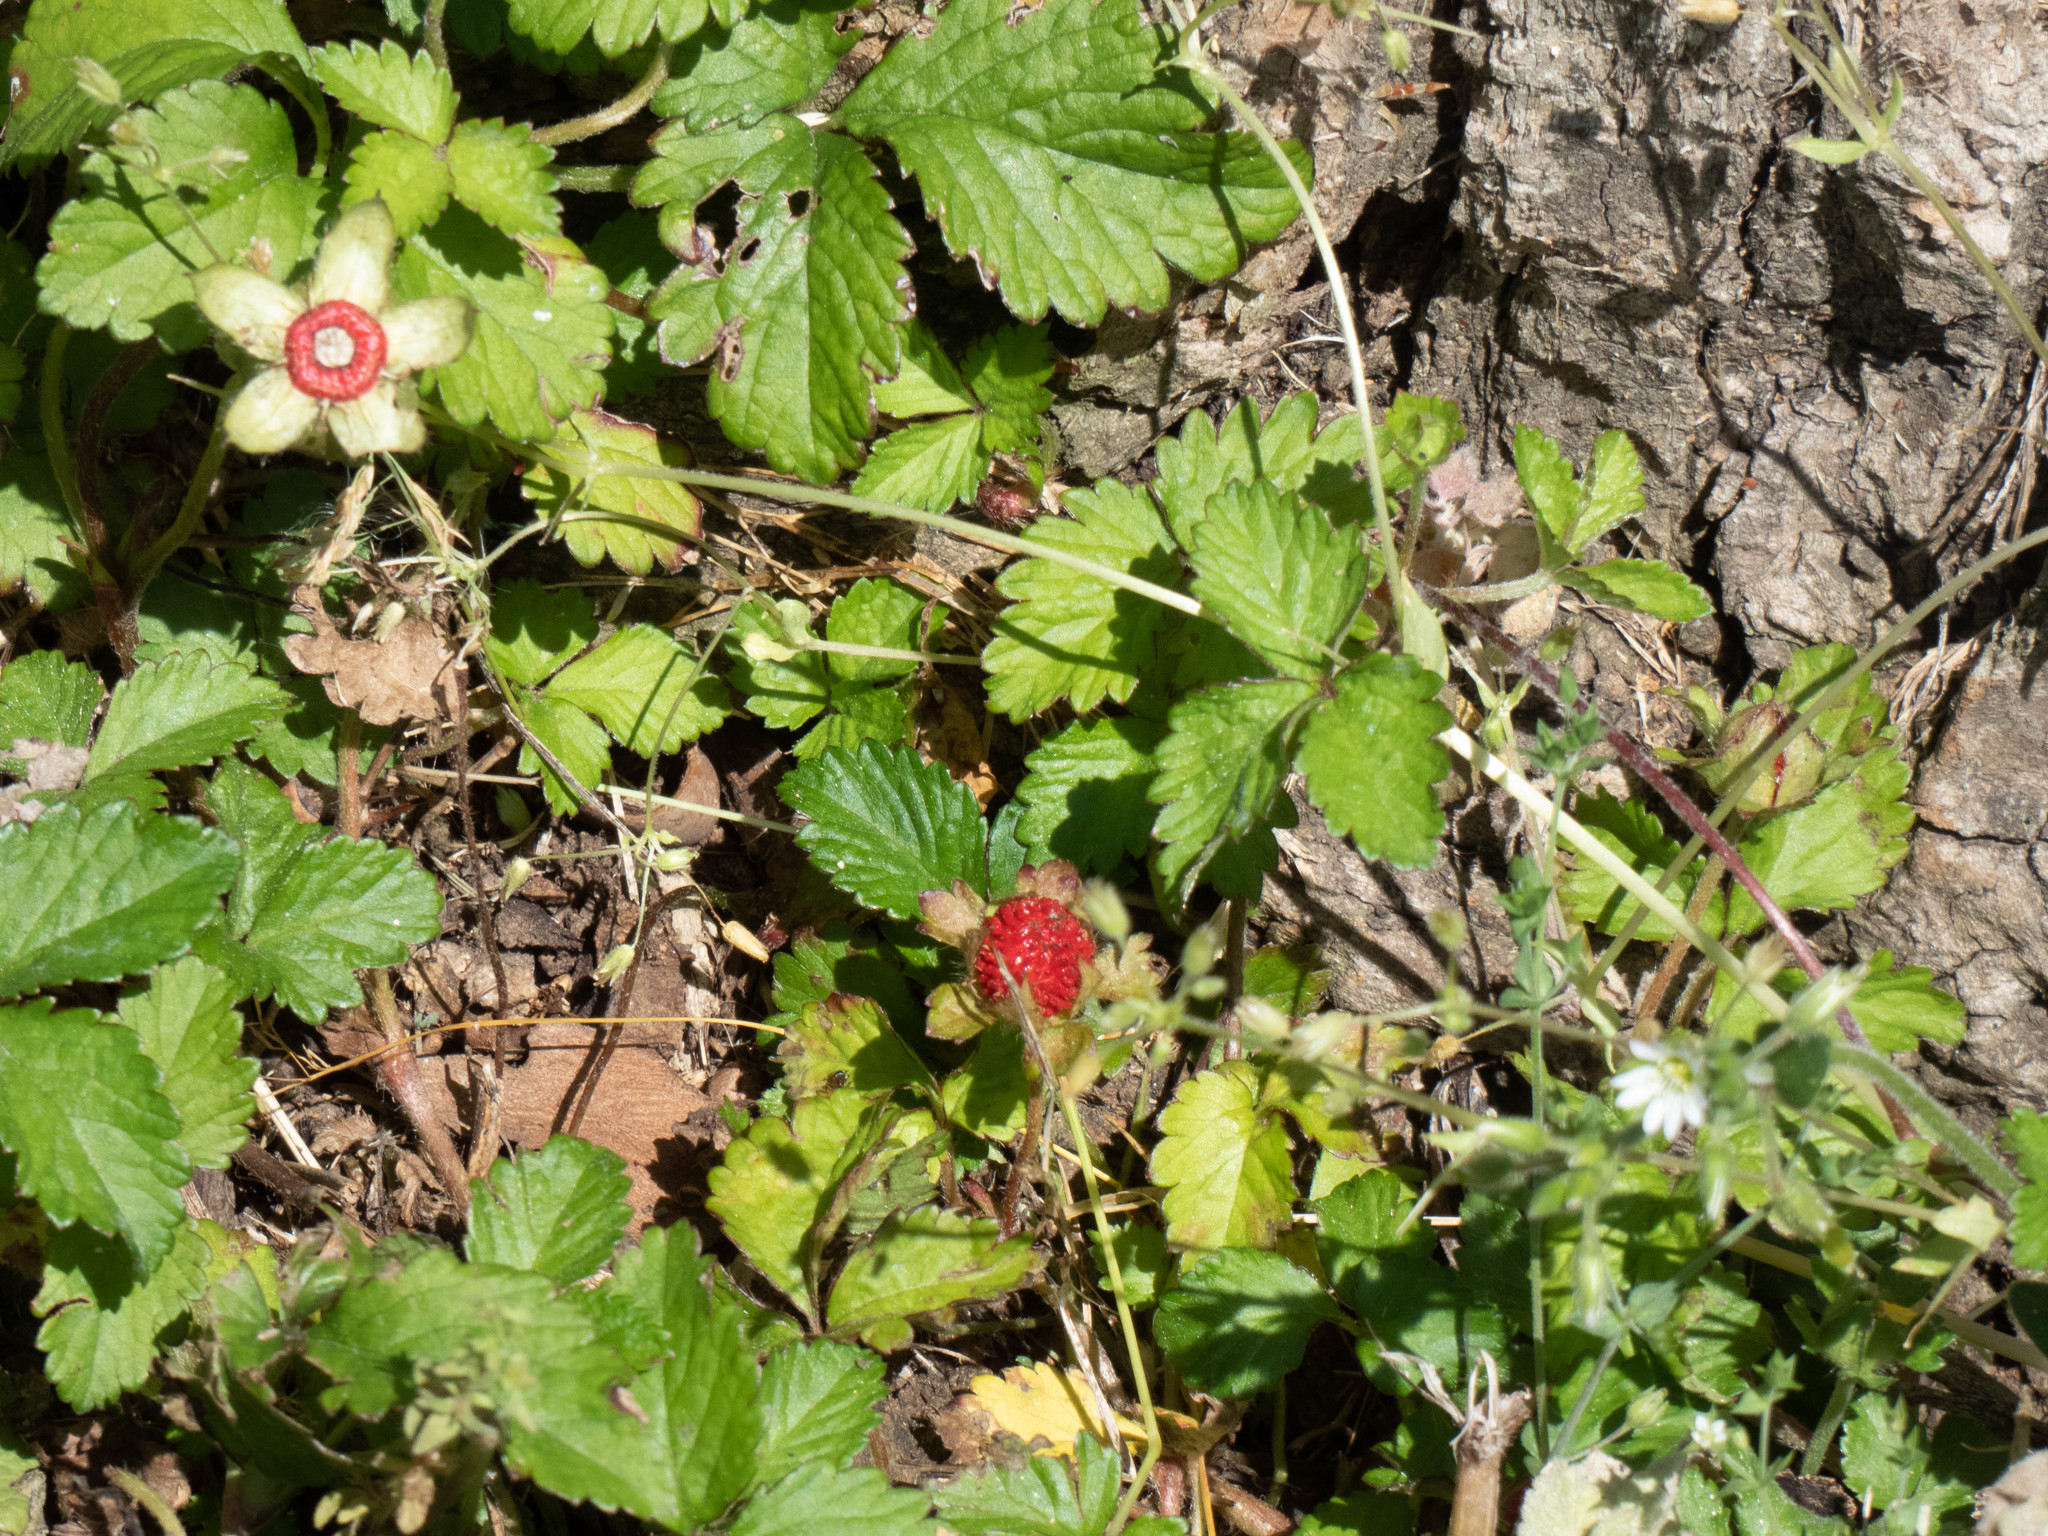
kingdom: Plantae
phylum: Tracheophyta
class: Magnoliopsida
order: Rosales
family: Rosaceae
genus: Potentilla
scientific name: Potentilla indica
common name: Yellow-flowered strawberry
